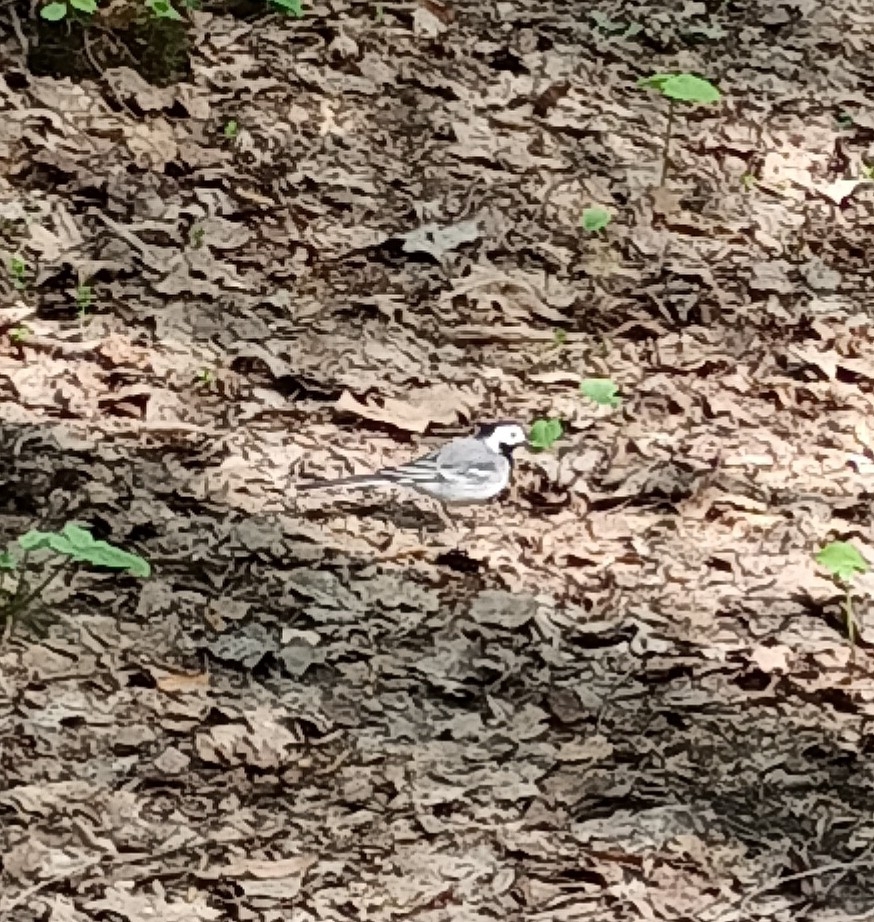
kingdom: Animalia
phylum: Chordata
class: Aves
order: Passeriformes
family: Motacillidae
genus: Motacilla
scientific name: Motacilla alba
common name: White wagtail
